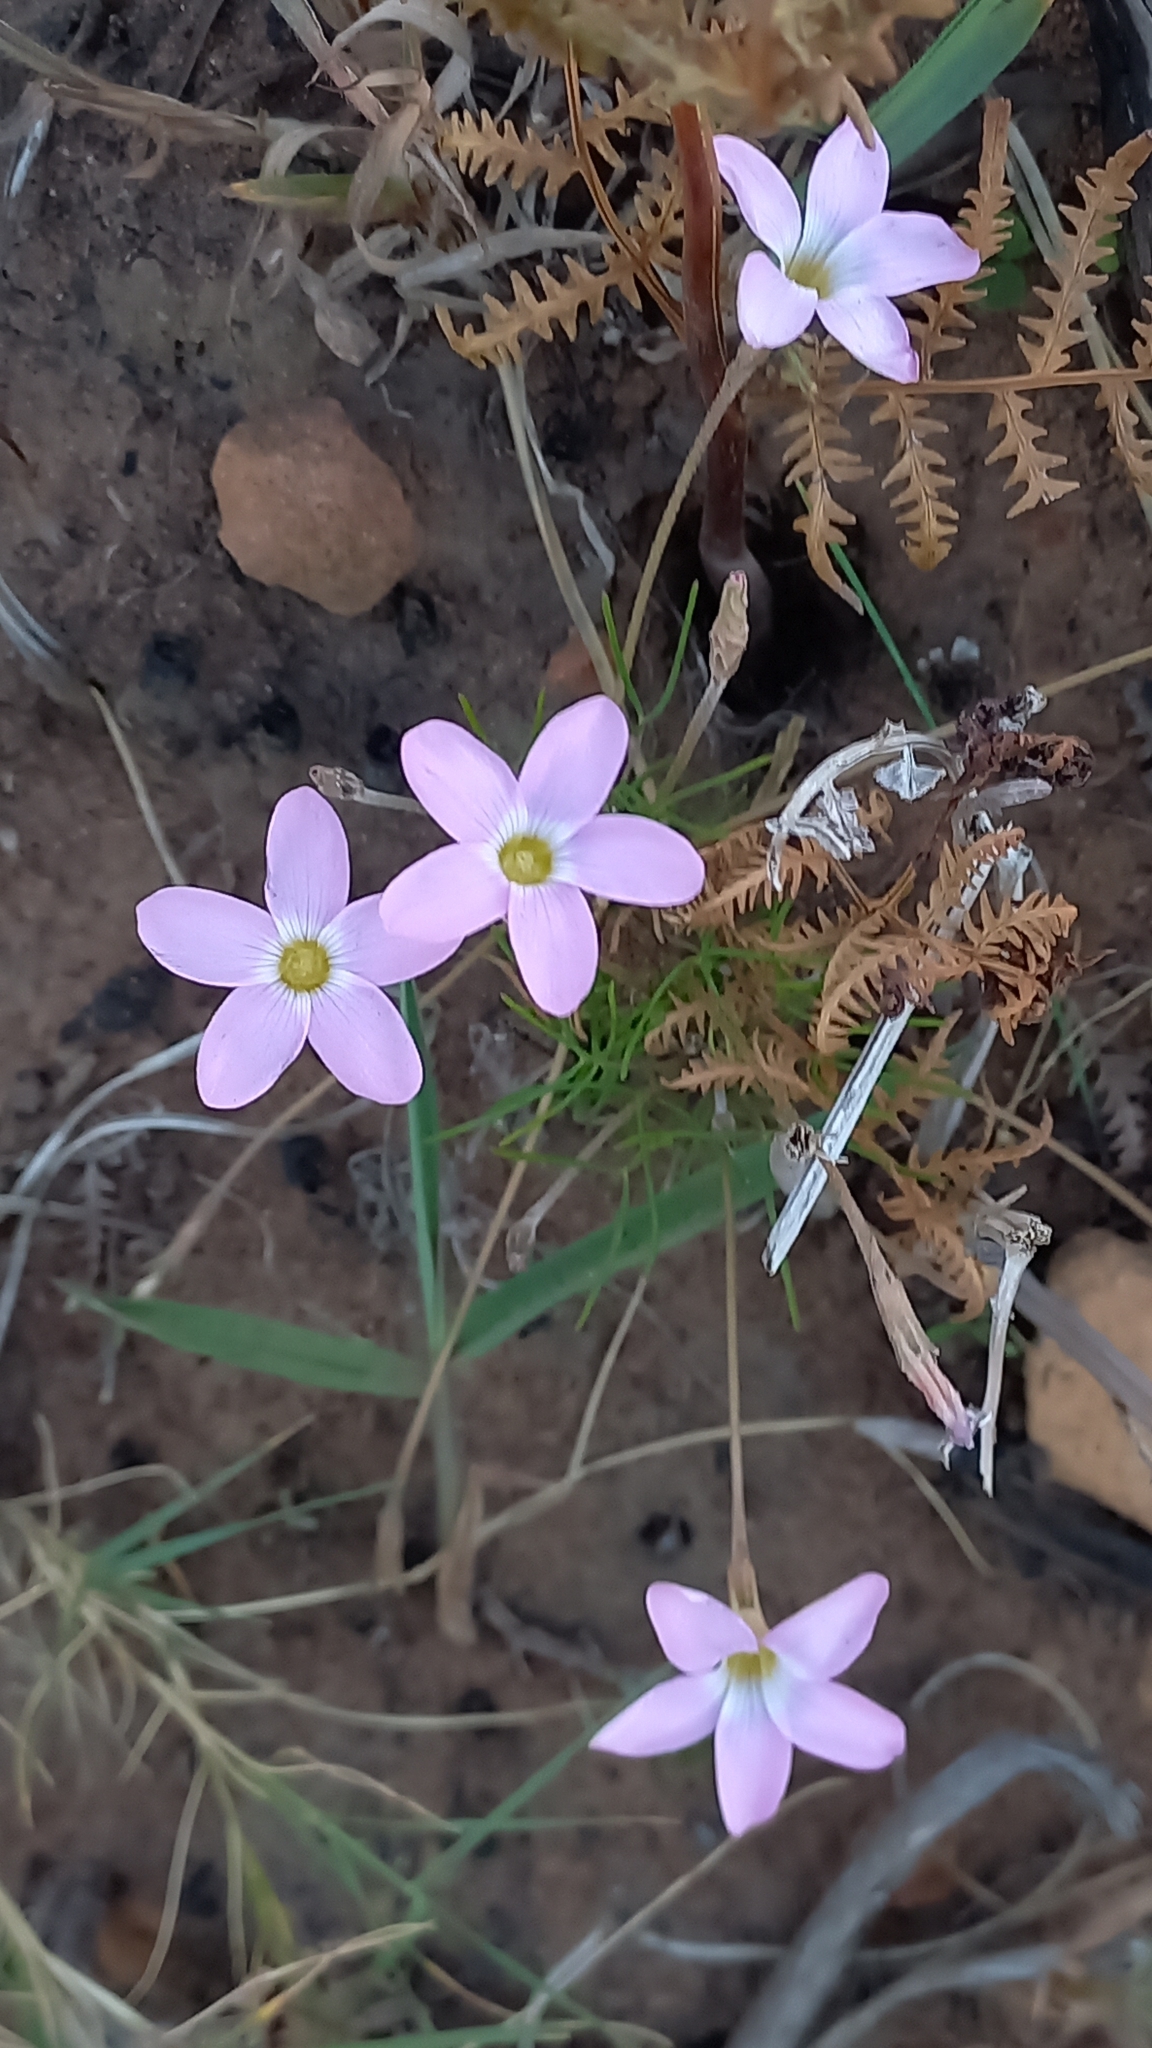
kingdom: Plantae
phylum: Tracheophyta
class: Magnoliopsida
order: Oxalidales
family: Oxalidaceae
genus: Oxalis
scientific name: Oxalis polyphylla
